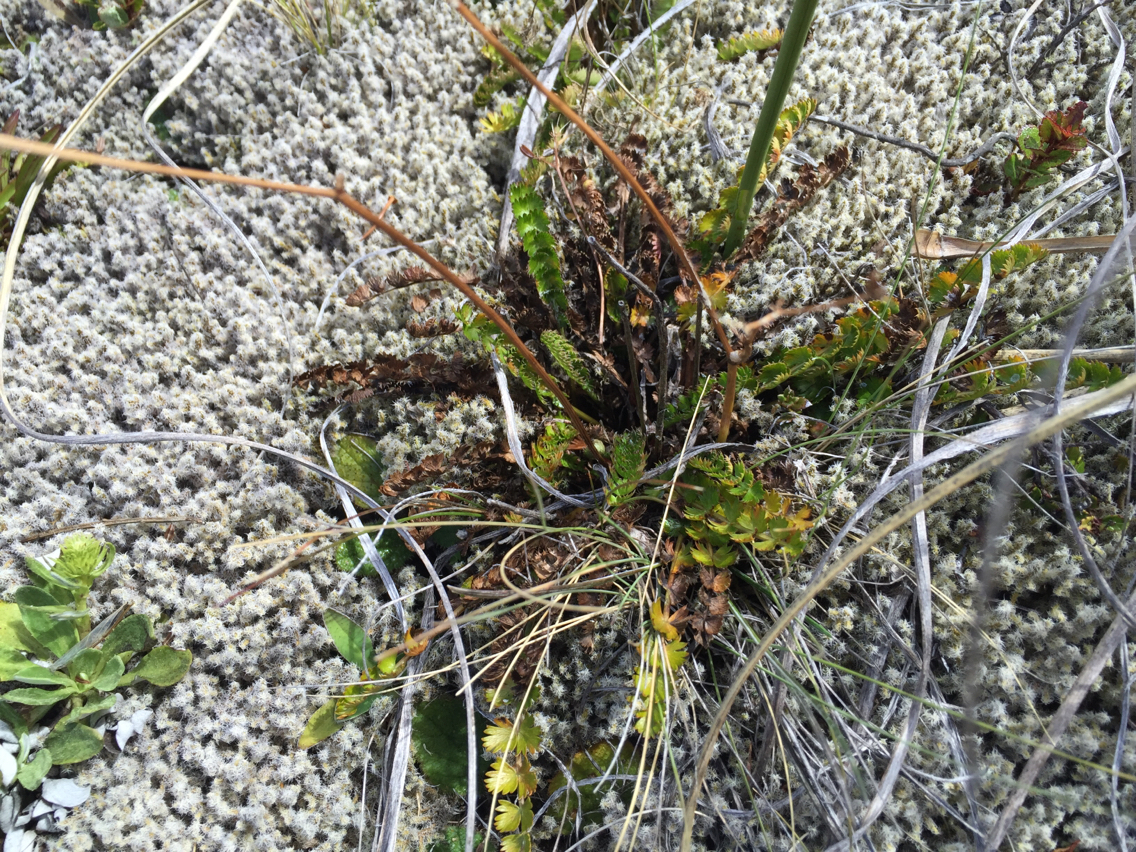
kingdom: Plantae
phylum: Tracheophyta
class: Magnoliopsida
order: Apiales
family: Apiaceae
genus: Anisotome
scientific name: Anisotome aromatica
